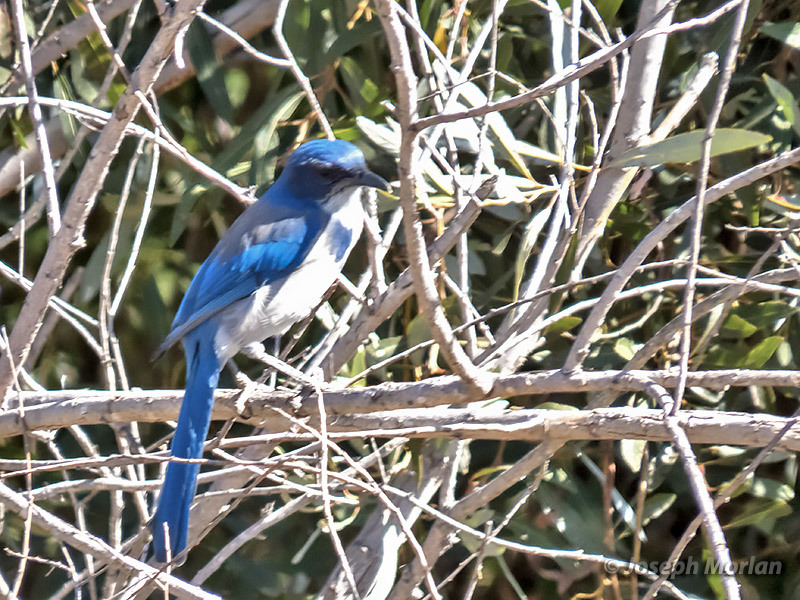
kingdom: Animalia
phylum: Chordata
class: Aves
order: Passeriformes
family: Corvidae
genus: Aphelocoma
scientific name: Aphelocoma californica
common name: California scrub-jay
